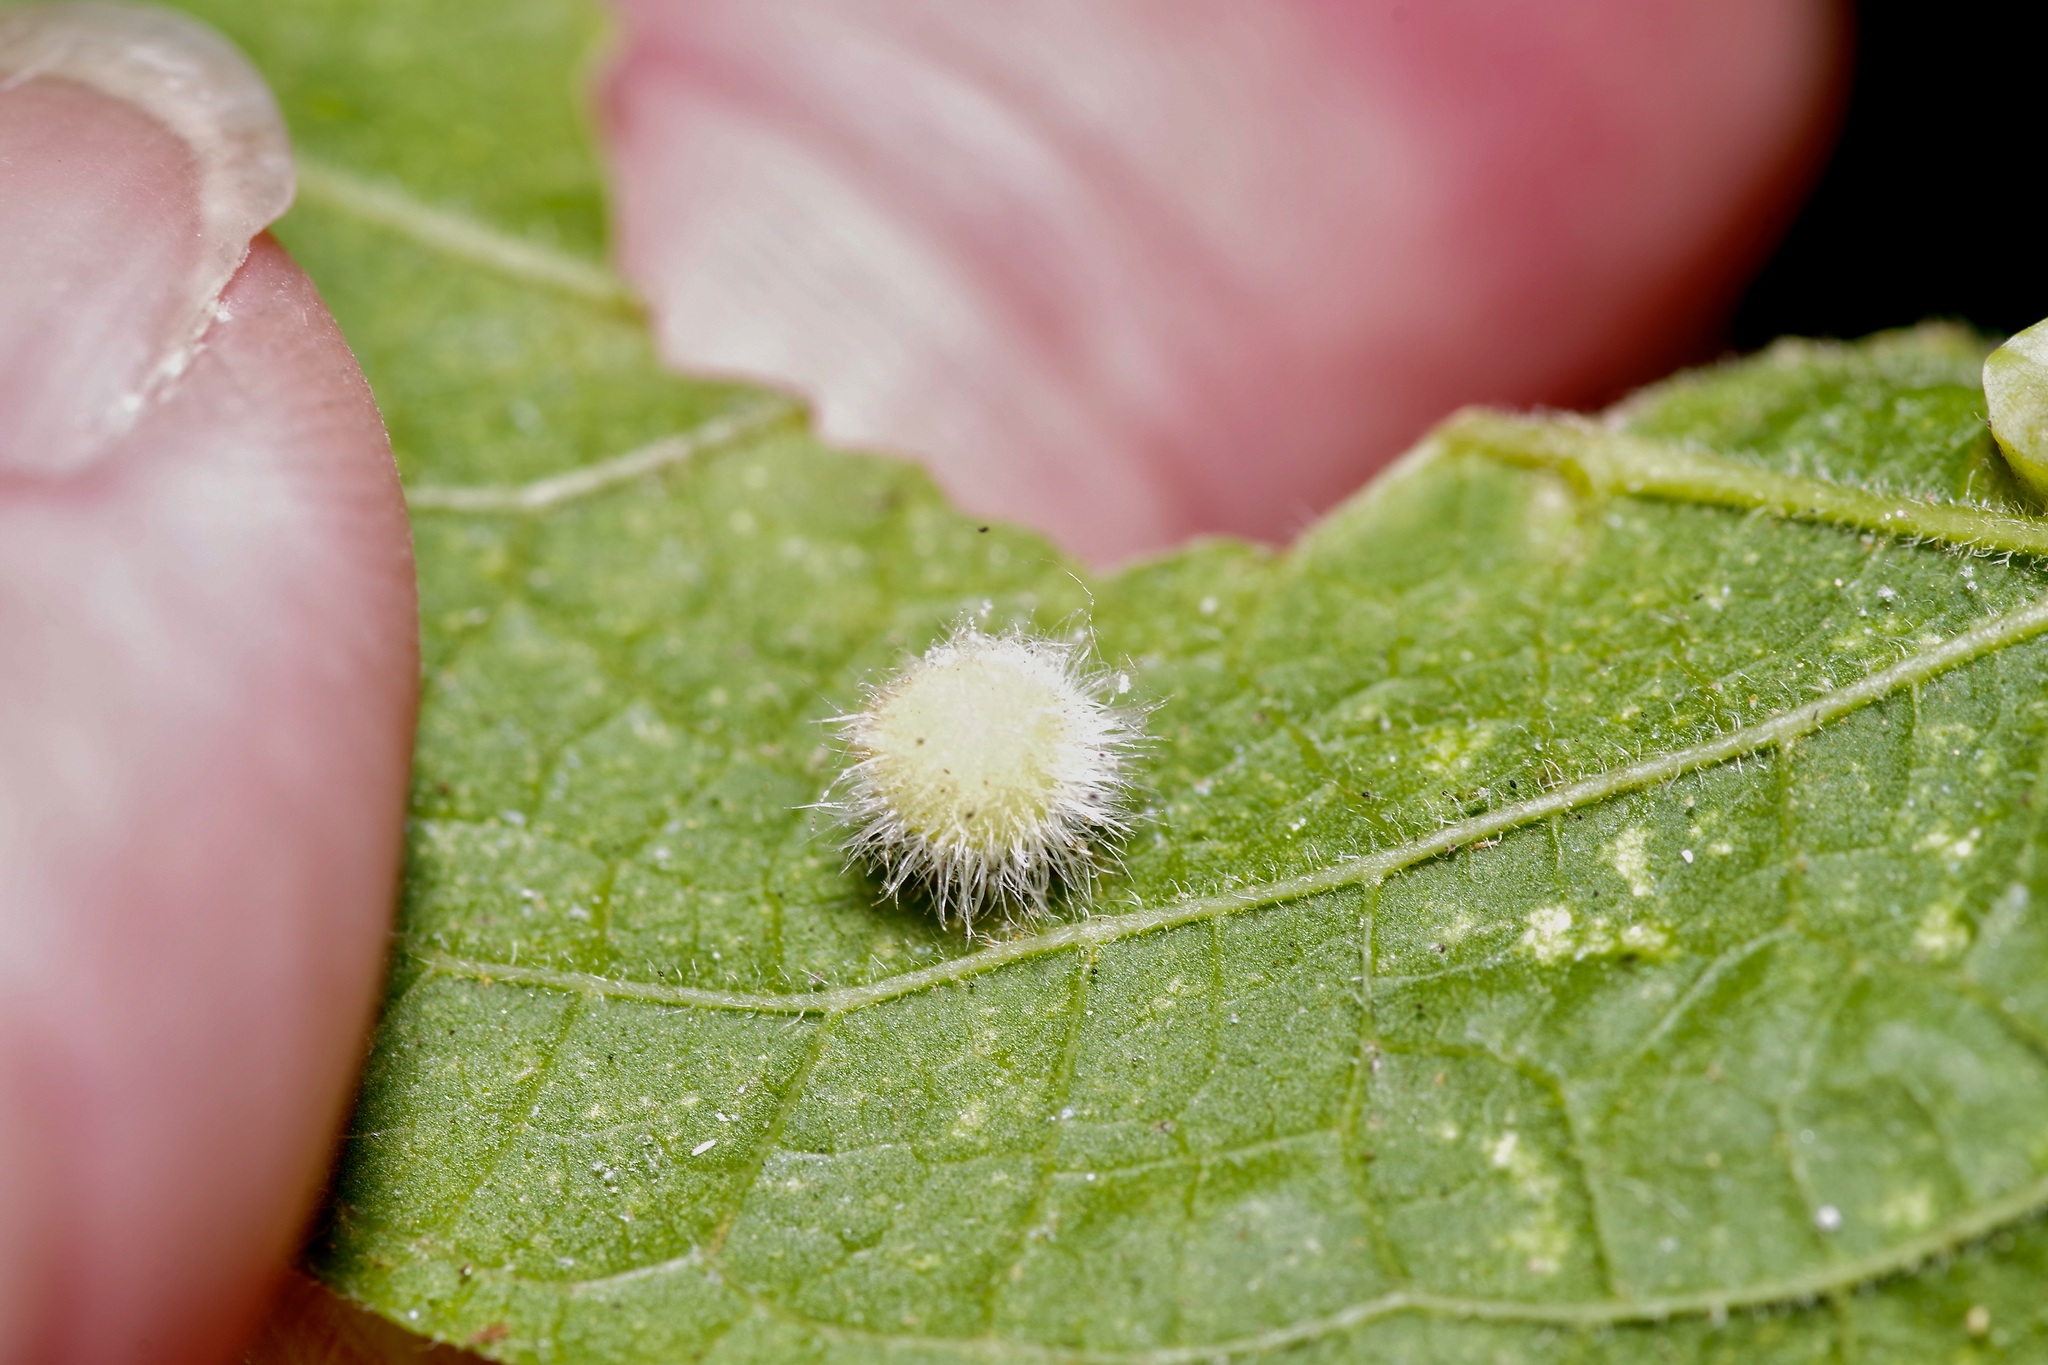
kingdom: Animalia
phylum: Arthropoda
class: Insecta
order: Diptera
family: Cecidomyiidae
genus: Celticecis
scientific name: Celticecis pubescens
